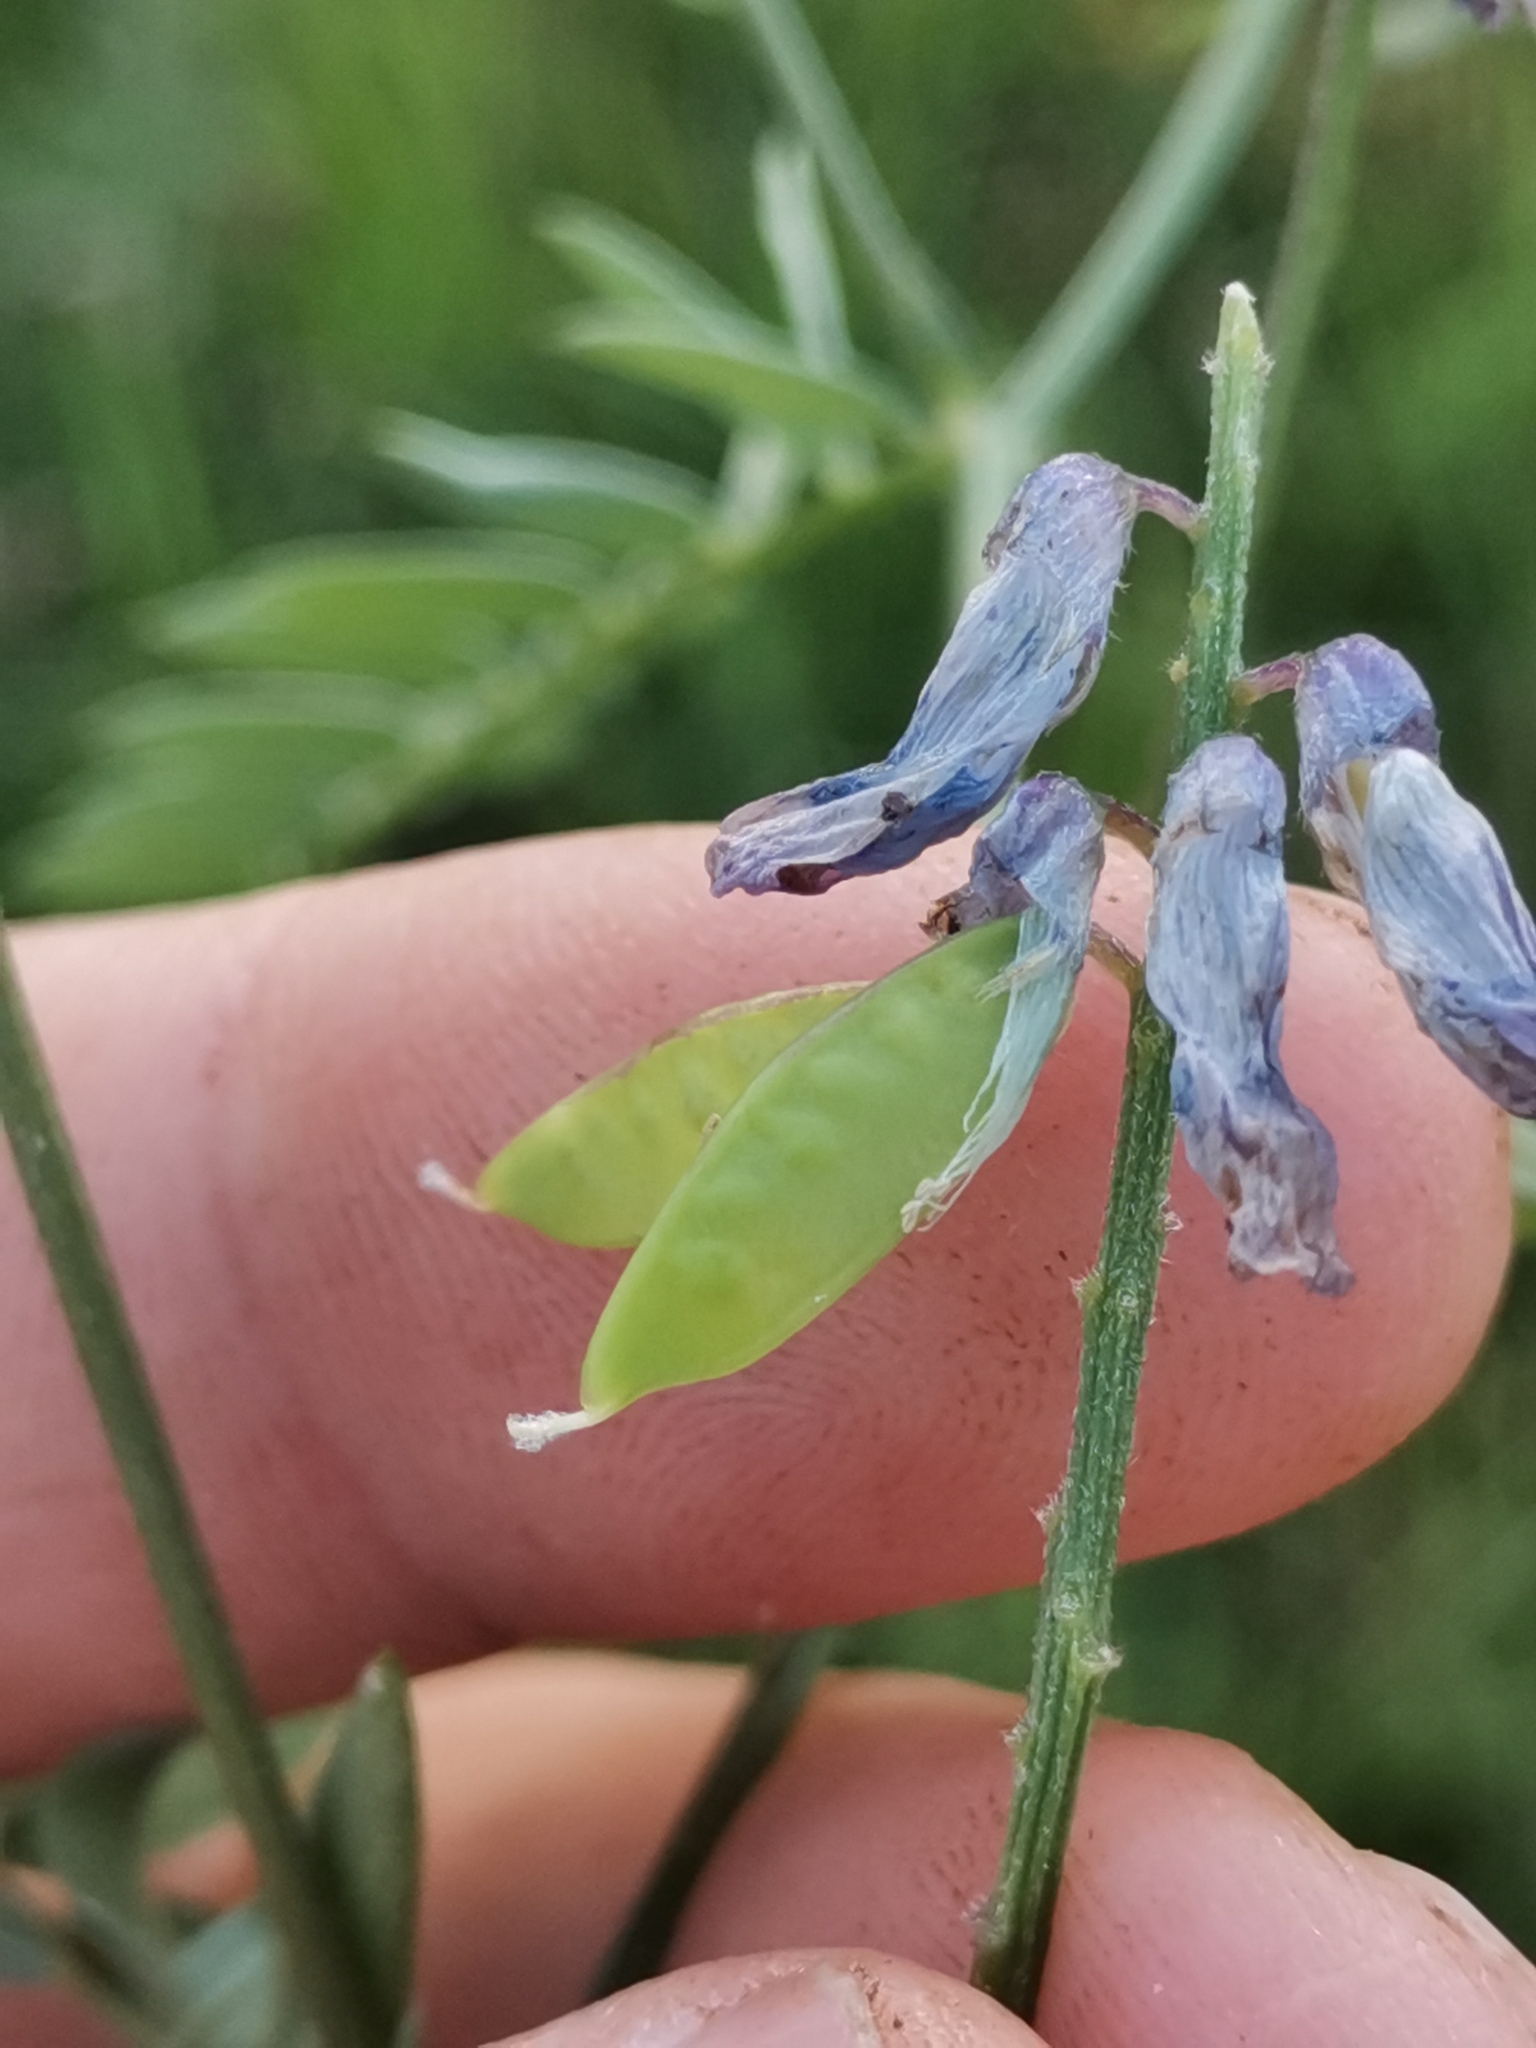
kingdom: Plantae
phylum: Tracheophyta
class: Magnoliopsida
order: Fabales
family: Fabaceae
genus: Vicia
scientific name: Vicia tenuifolia
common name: Fine-leaved vetch
